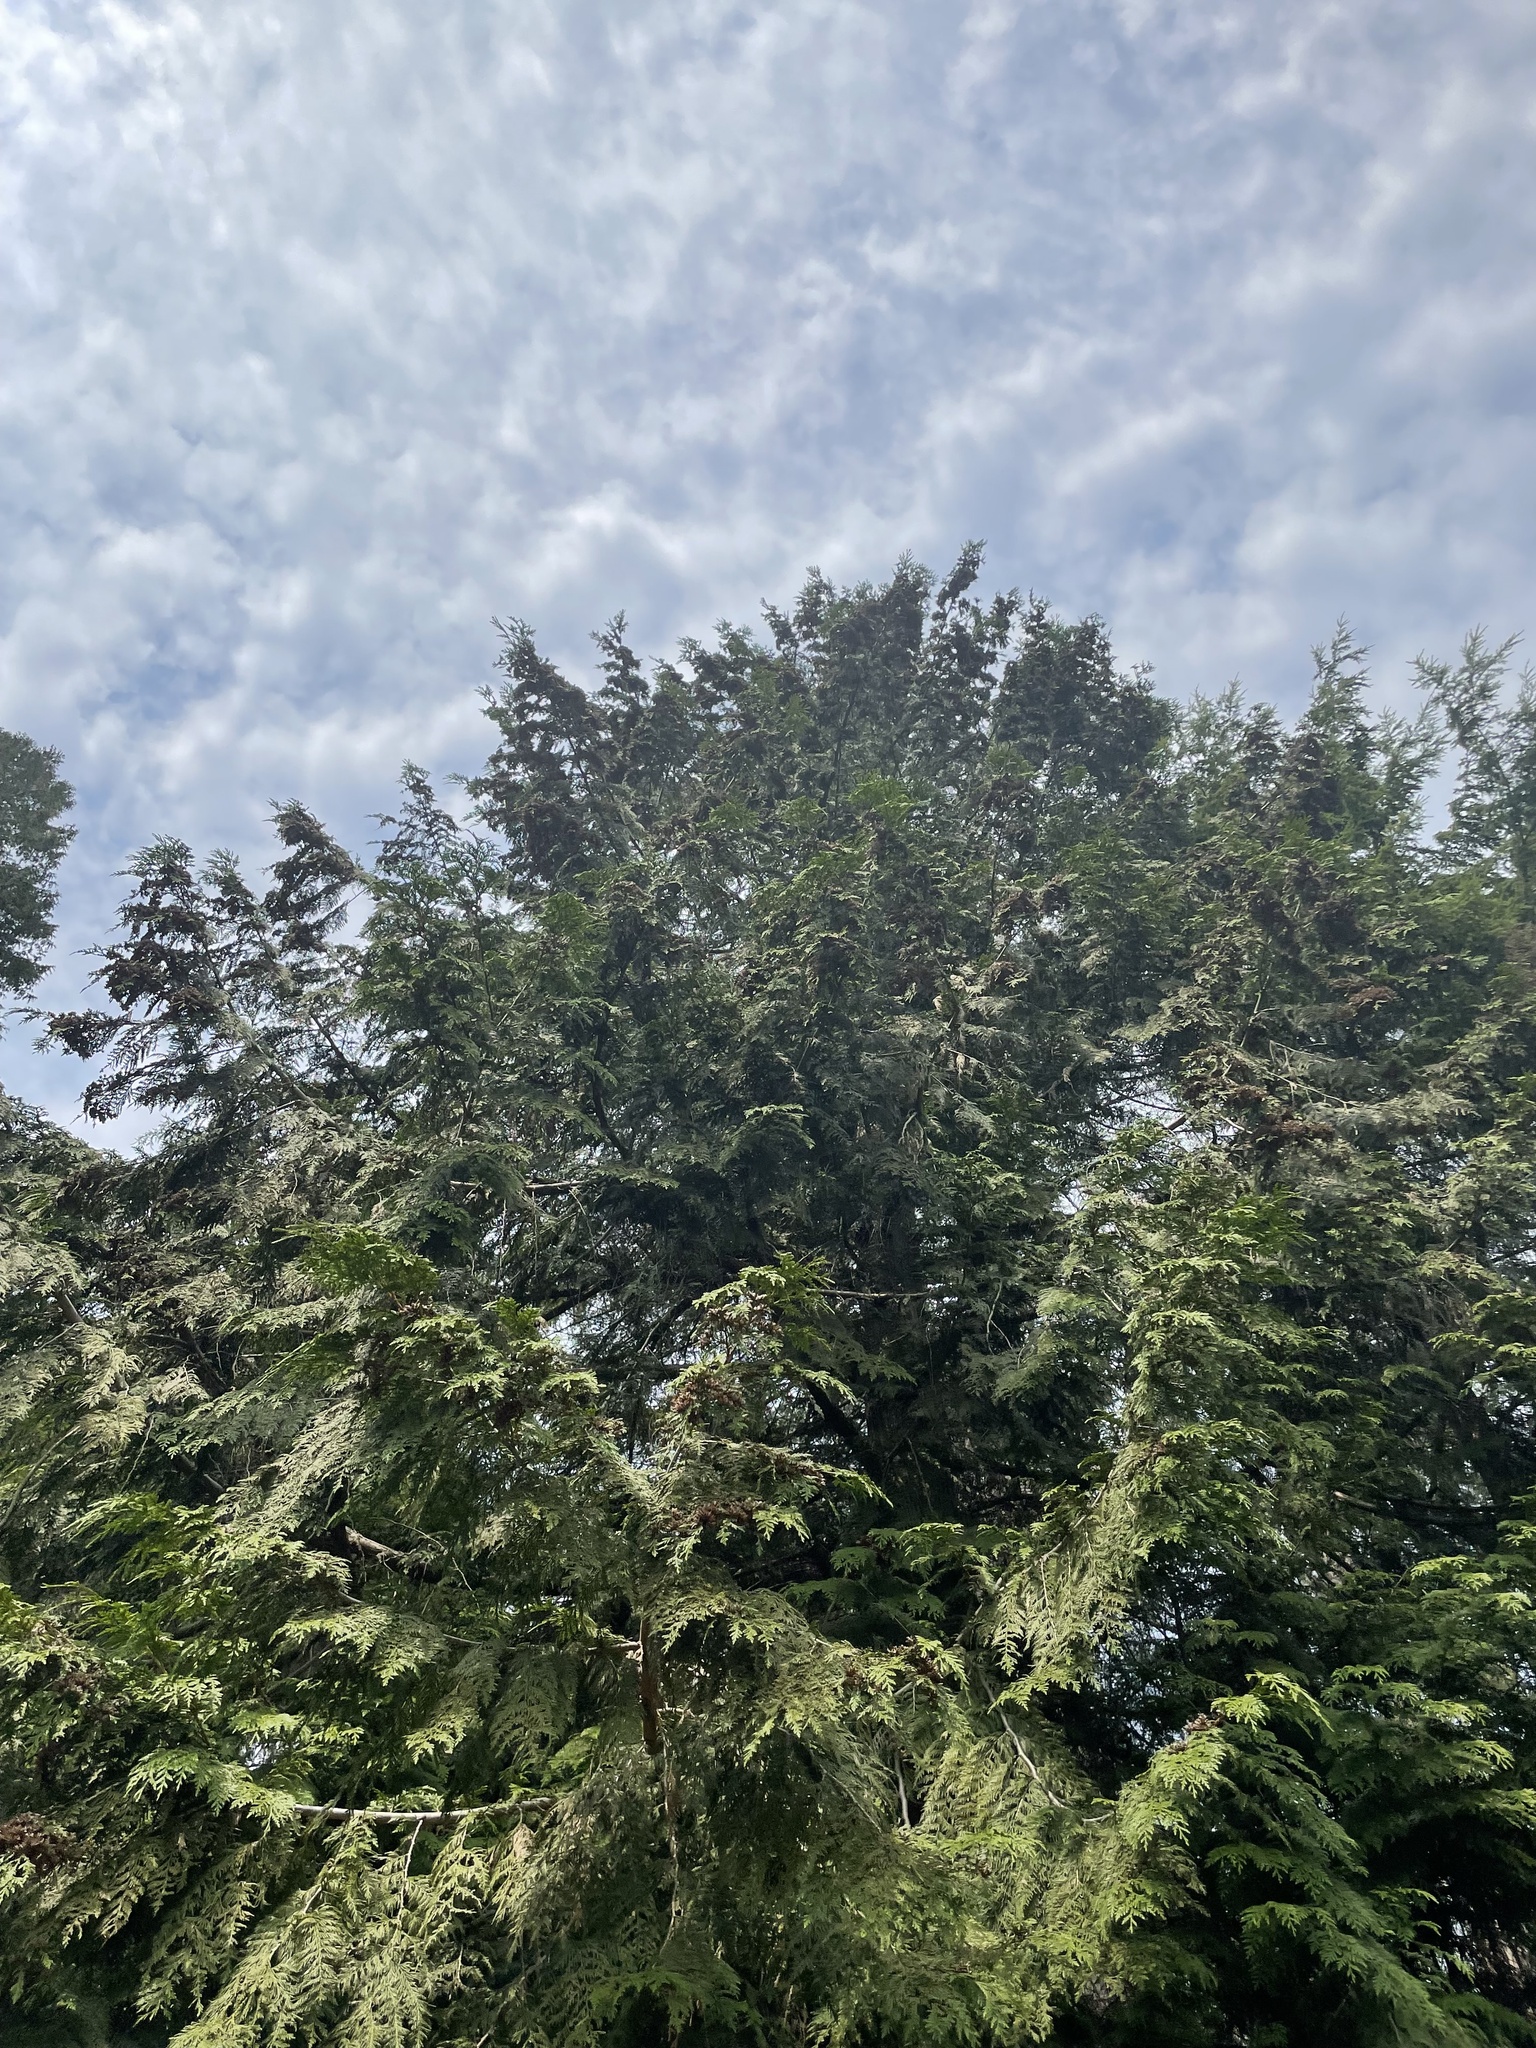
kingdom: Plantae
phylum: Tracheophyta
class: Pinopsida
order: Pinales
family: Cupressaceae
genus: Thuja
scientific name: Thuja plicata
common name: Western red-cedar
